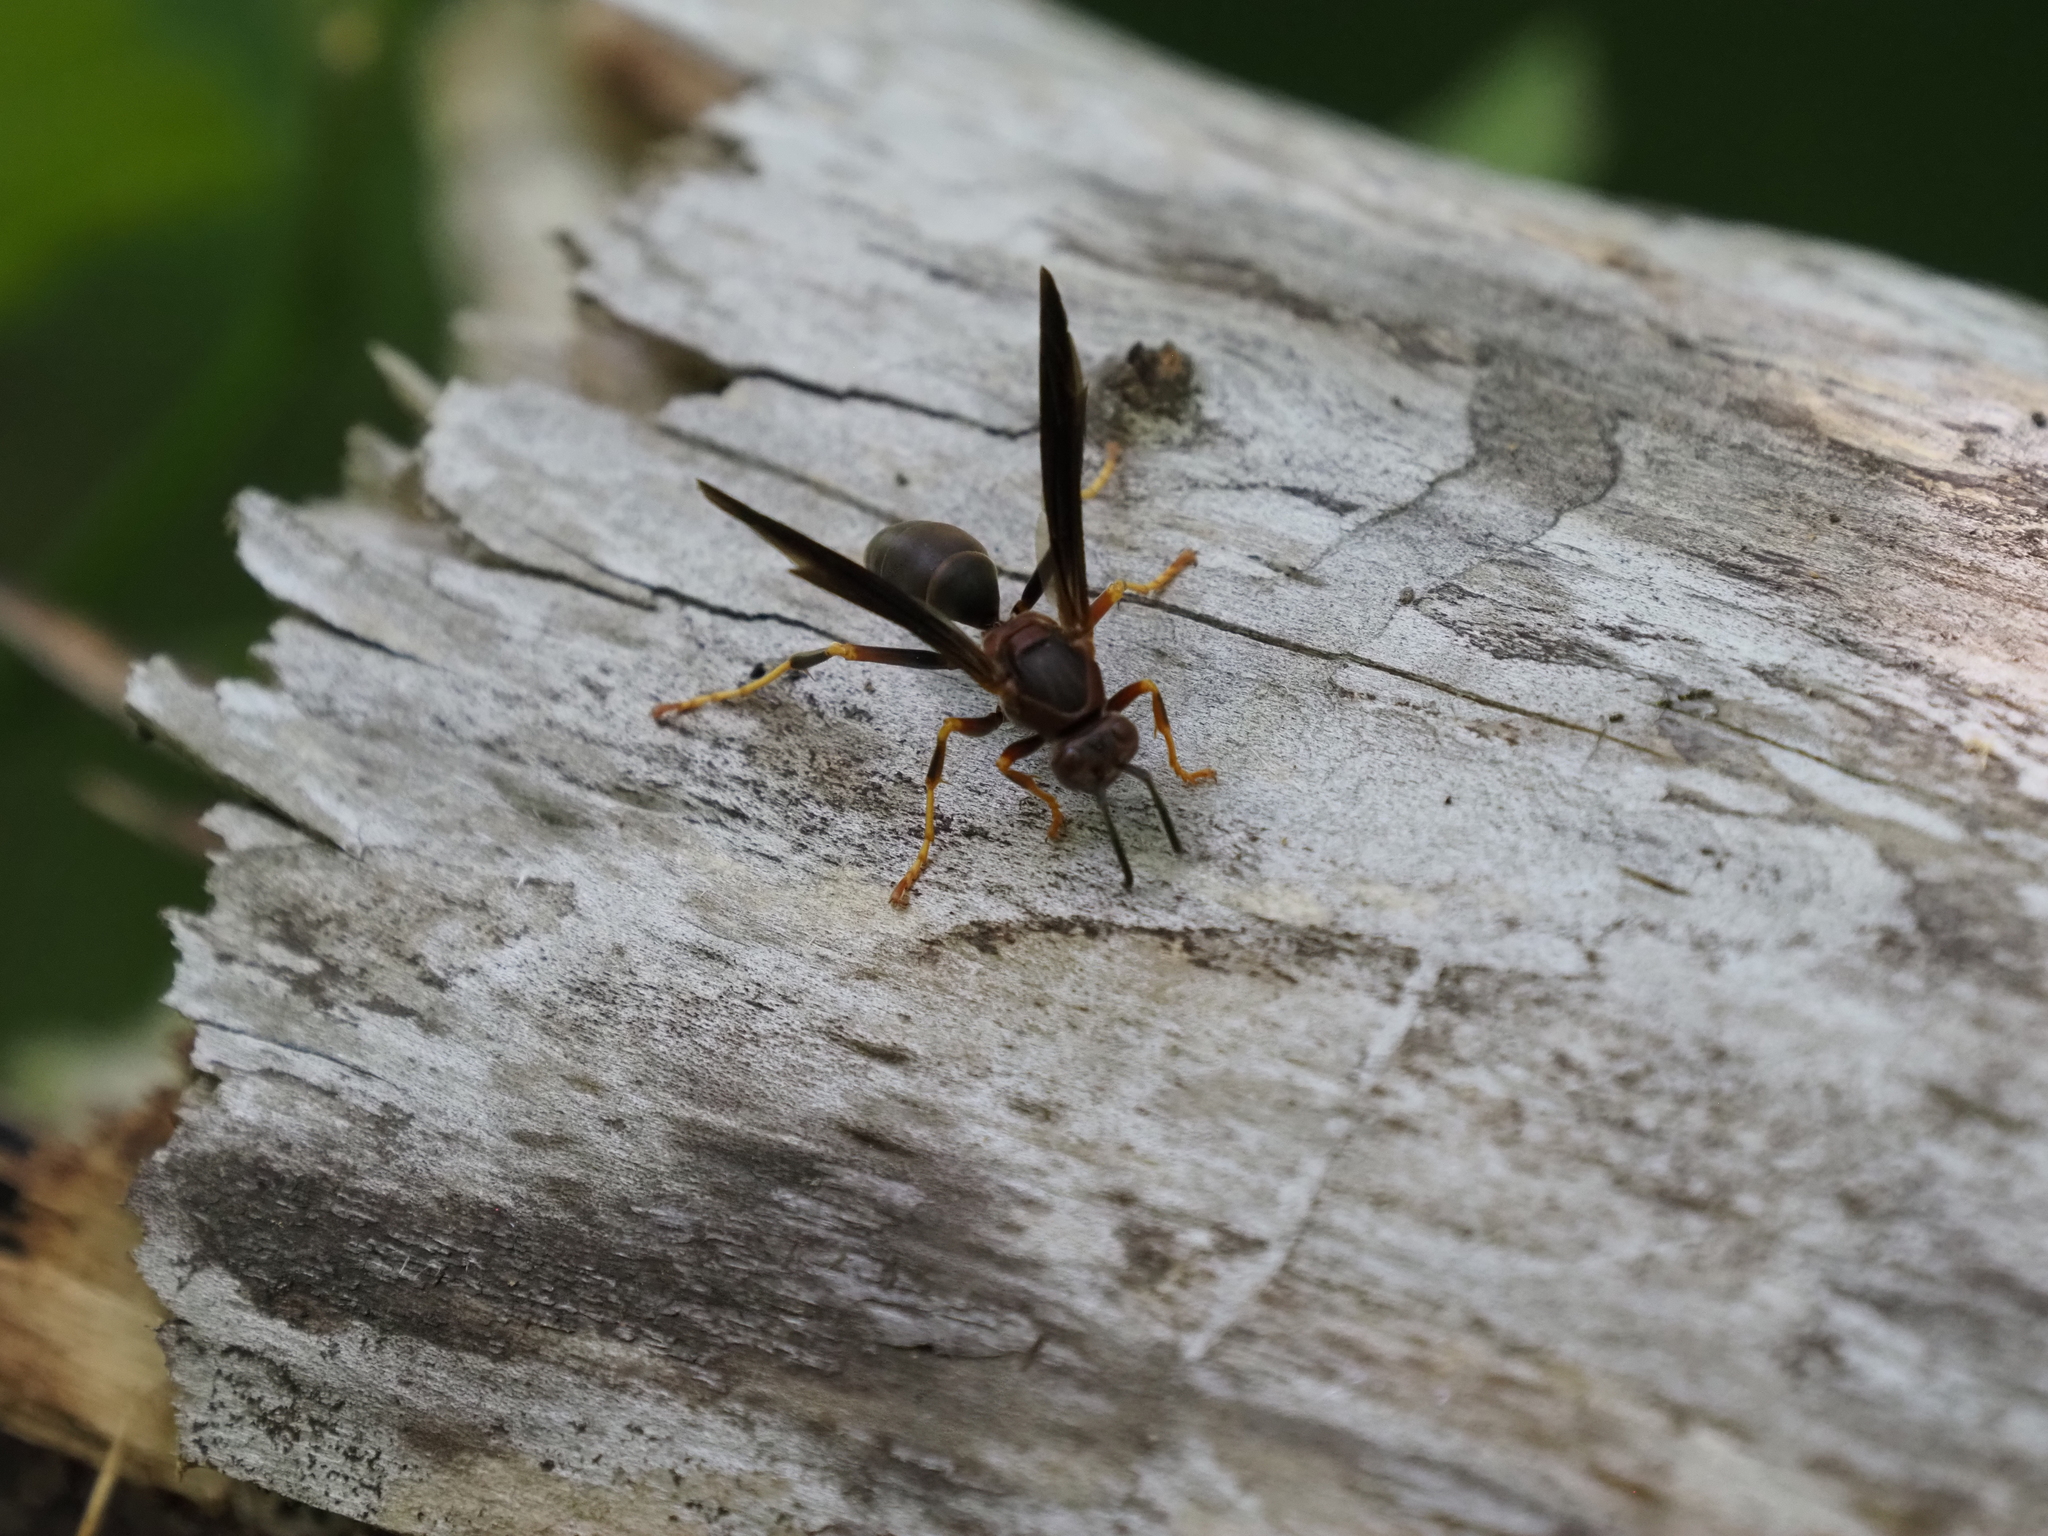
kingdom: Animalia
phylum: Arthropoda
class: Insecta
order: Hymenoptera
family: Eumenidae
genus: Polistes
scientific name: Polistes metricus
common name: Metric paper wasp
